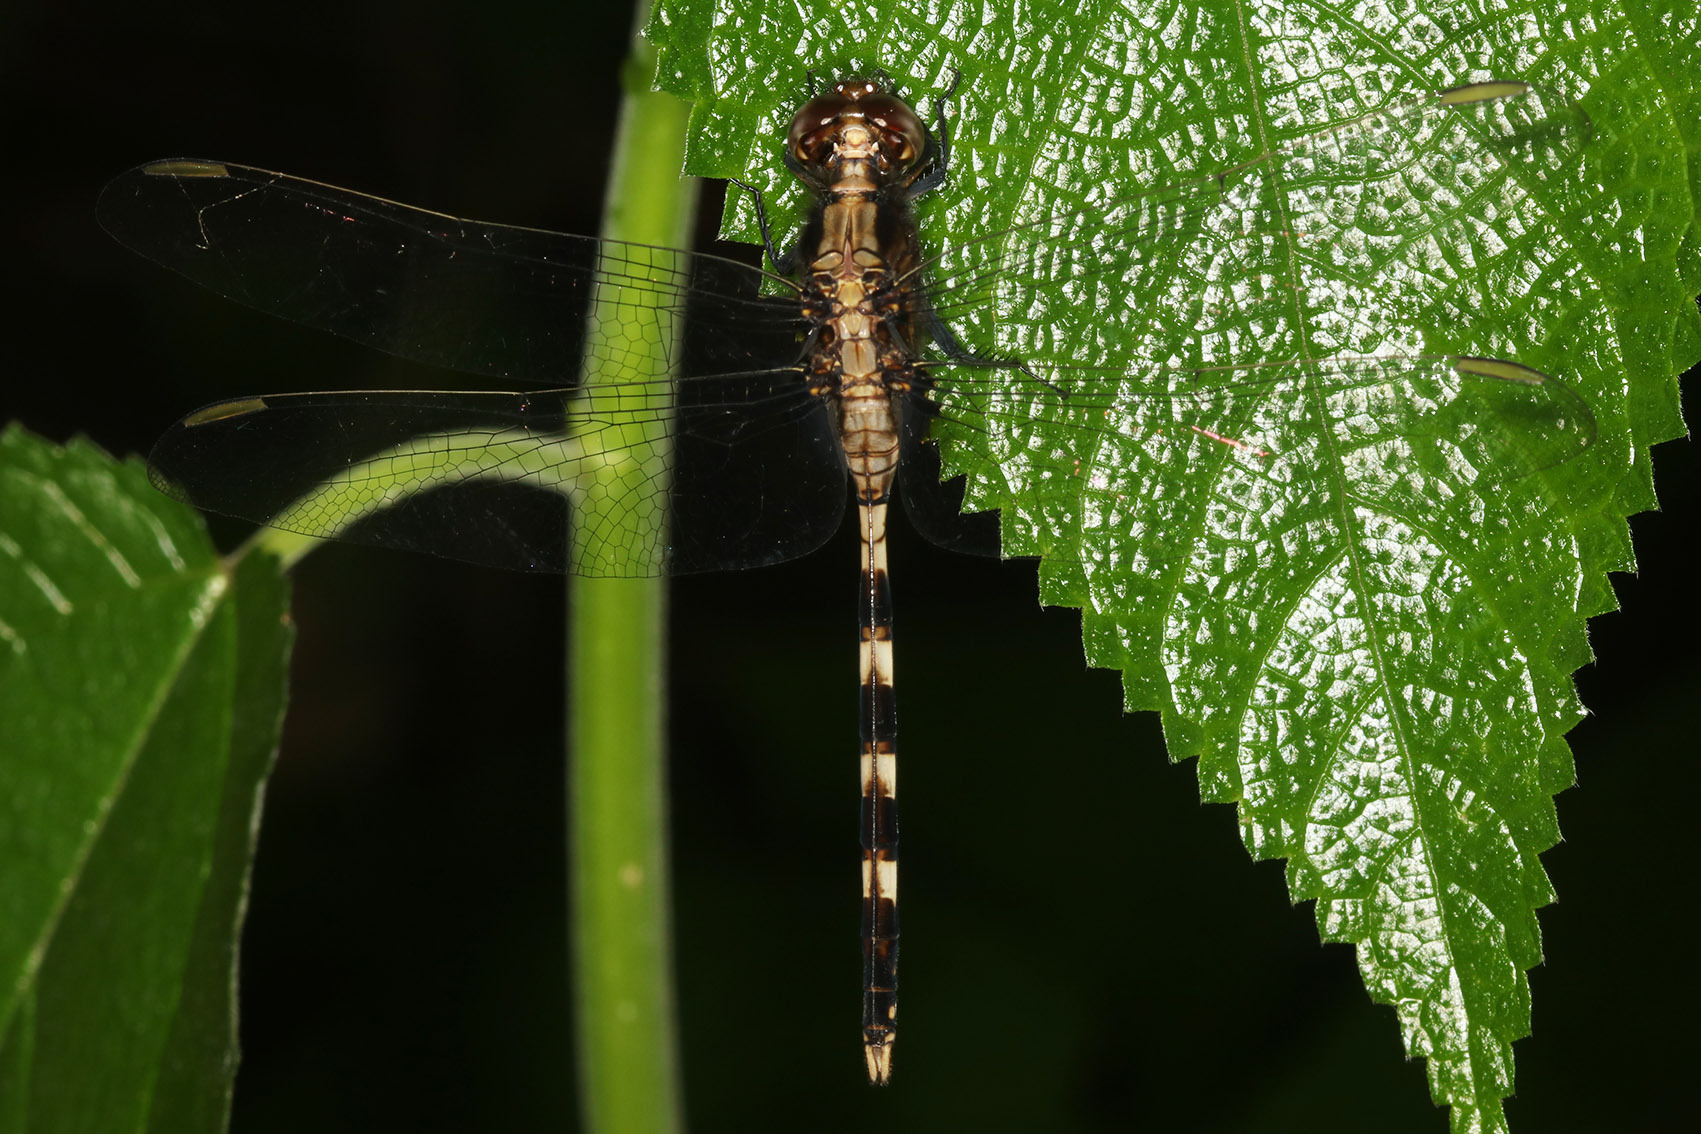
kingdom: Animalia
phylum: Arthropoda
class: Insecta
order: Odonata
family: Libellulidae
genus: Erythemis
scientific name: Erythemis plebeja
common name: Pin-tailed pondhawk
